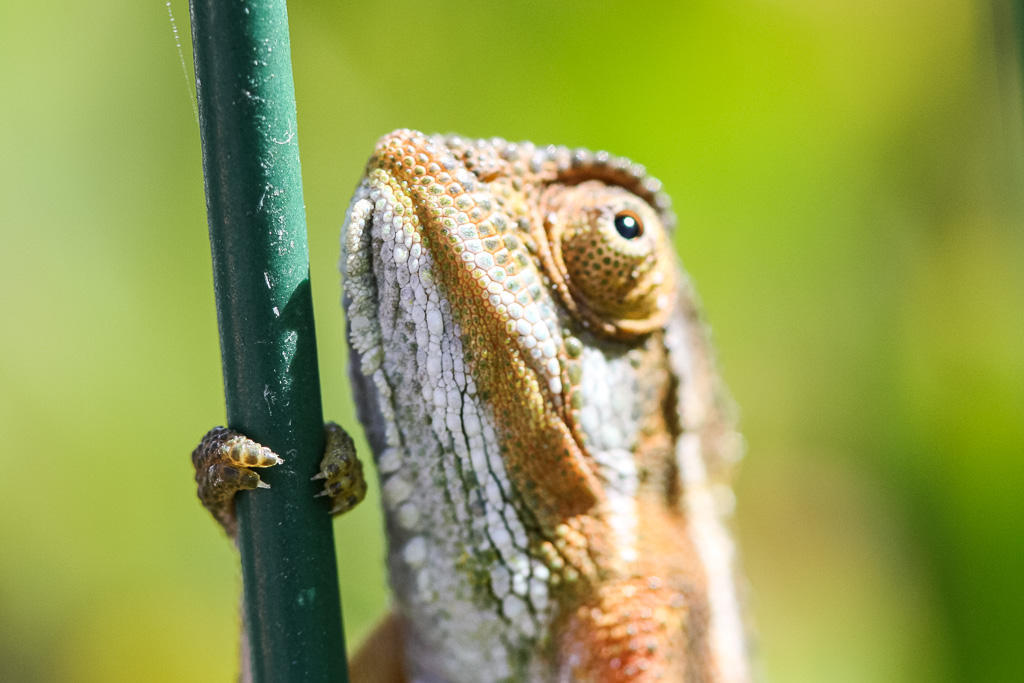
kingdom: Animalia
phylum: Chordata
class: Squamata
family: Chamaeleonidae
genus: Bradypodion
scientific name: Bradypodion pumilum
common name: Cape dwarf chameleon
